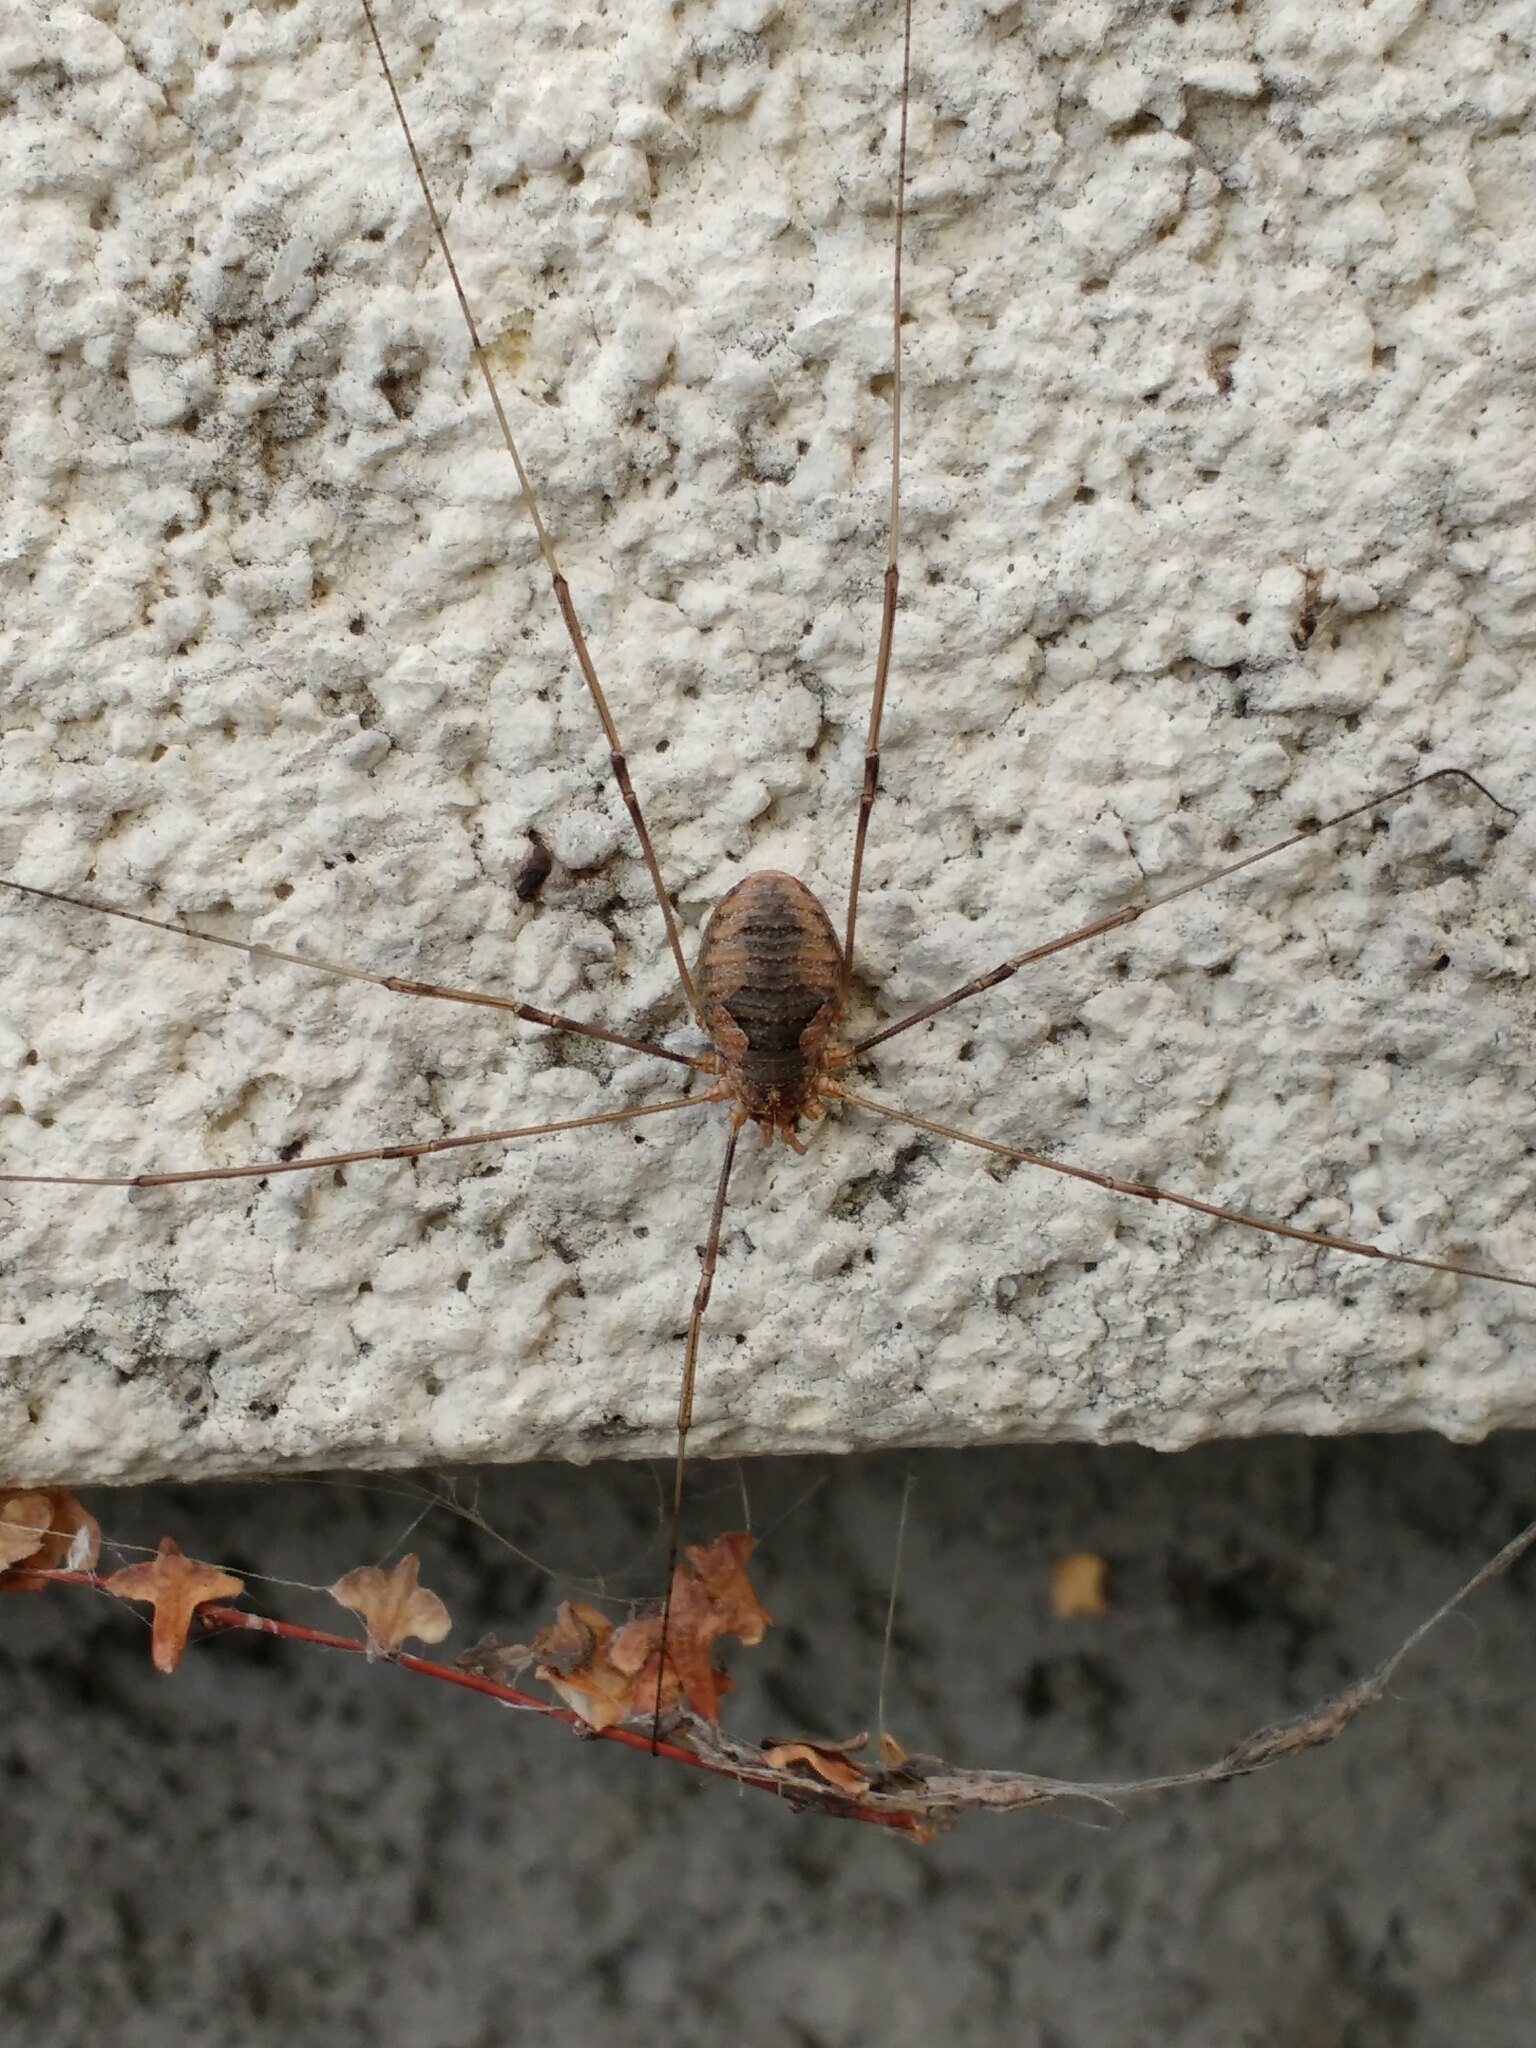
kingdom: Animalia
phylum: Arthropoda
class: Arachnida
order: Opiliones
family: Phalangiidae
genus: Phalangium
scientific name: Phalangium opilio
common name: Daddy longleg
